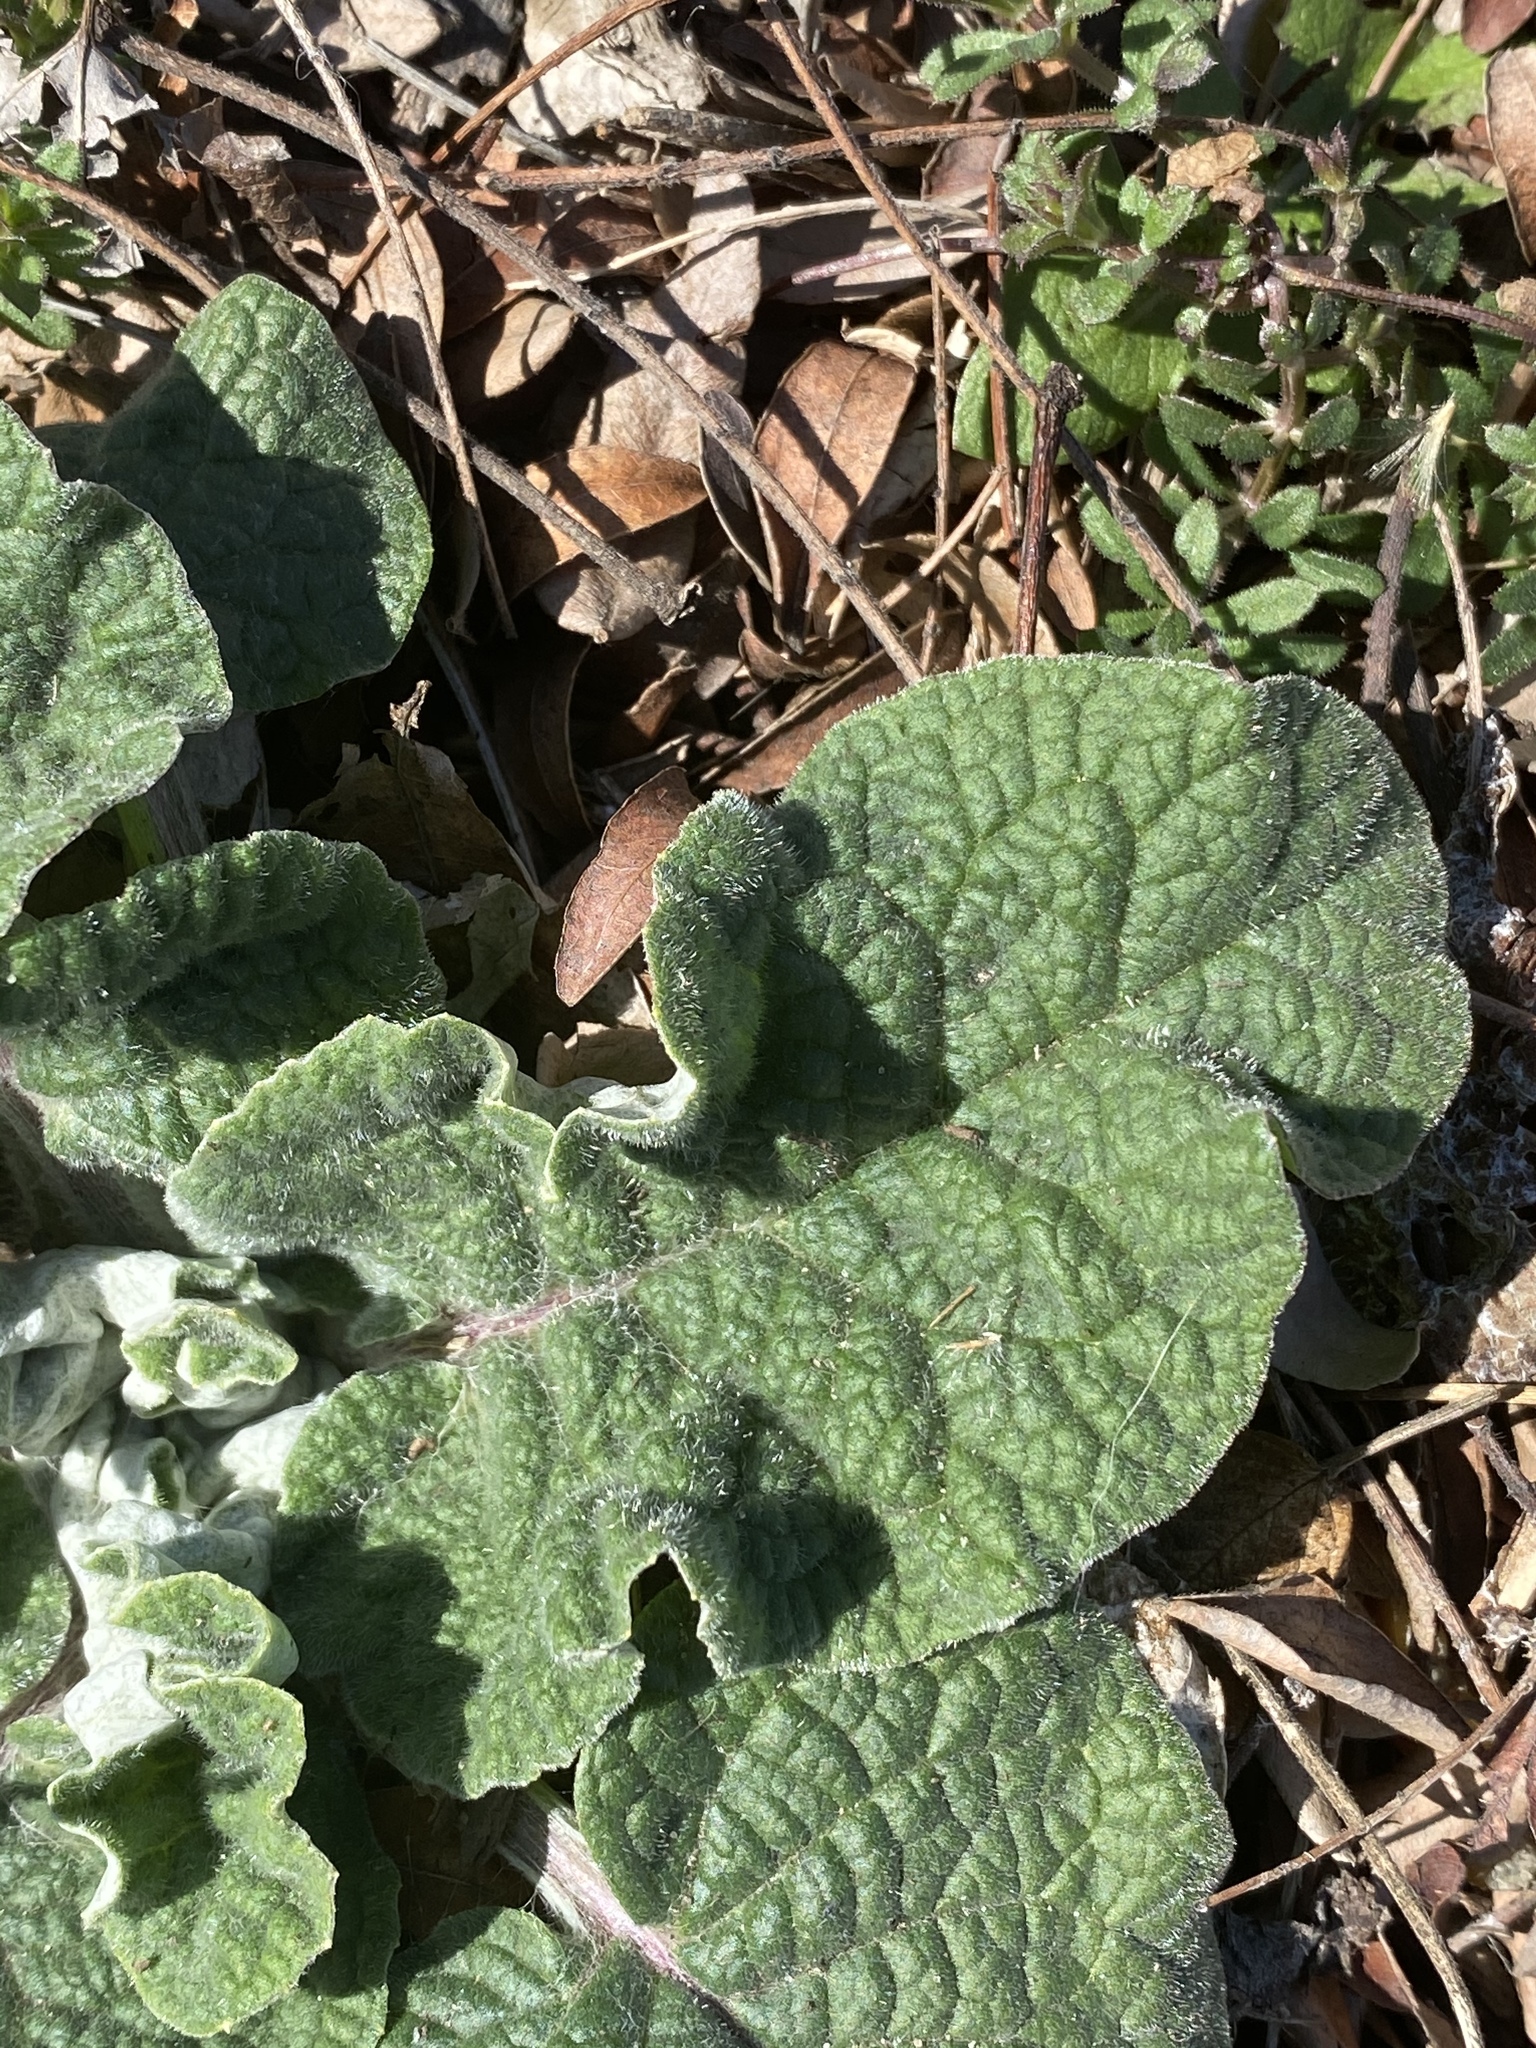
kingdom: Plantae
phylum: Tracheophyta
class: Magnoliopsida
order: Asterales
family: Asteraceae
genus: Arctium
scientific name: Arctium
